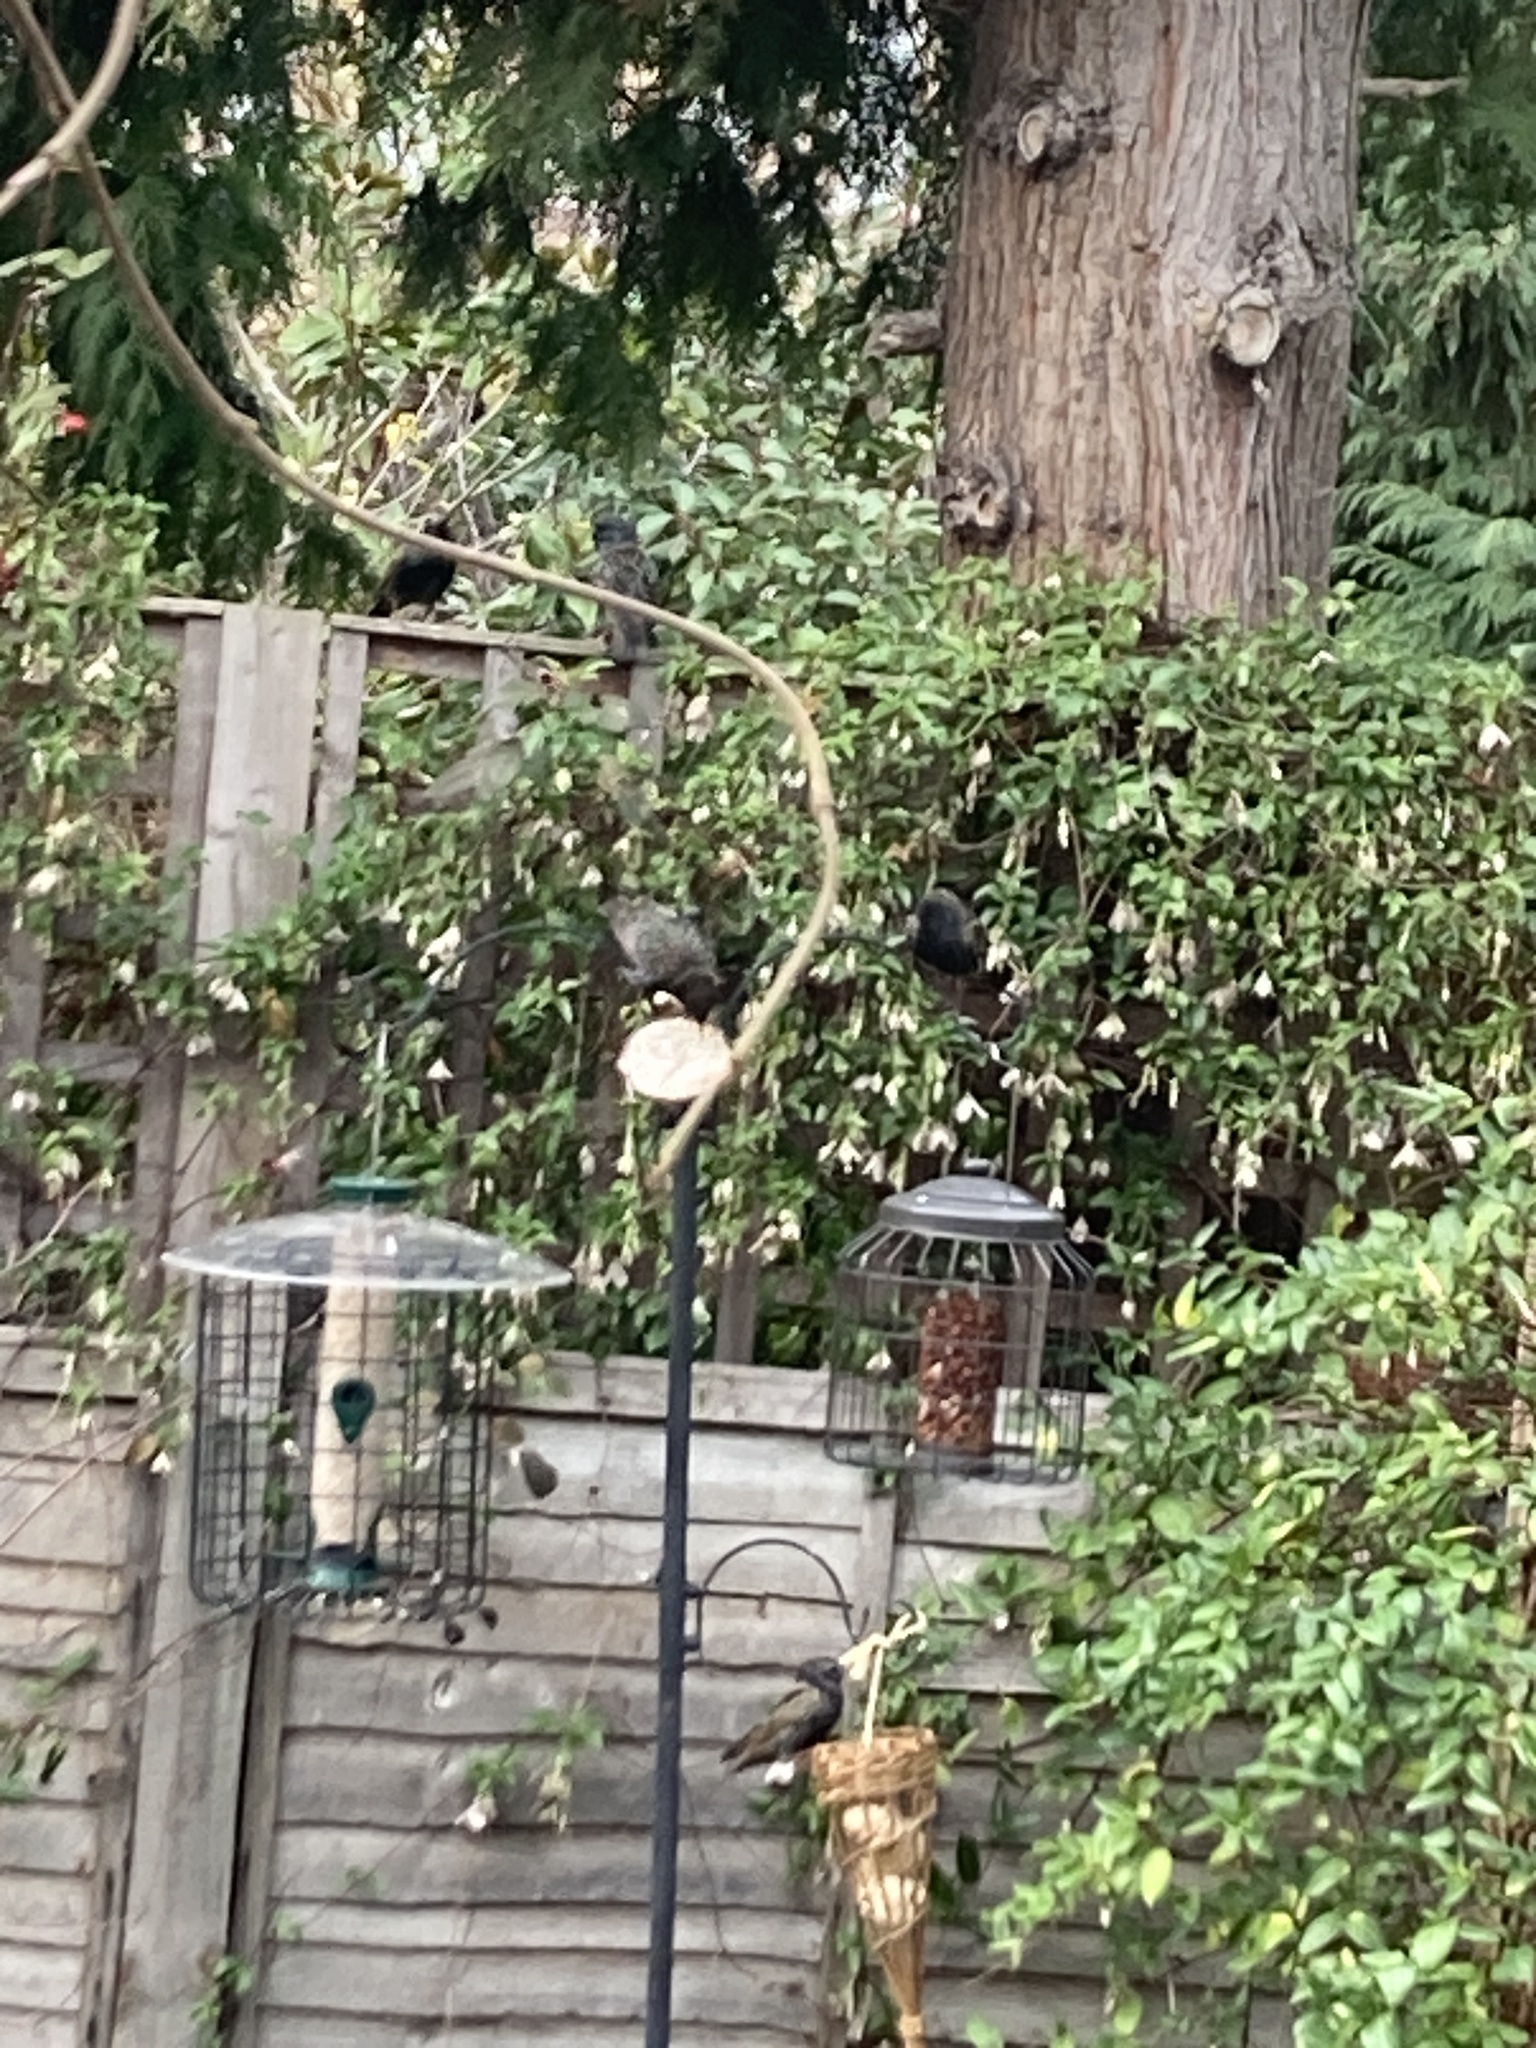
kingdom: Animalia
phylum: Chordata
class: Aves
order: Passeriformes
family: Sturnidae
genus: Sturnus
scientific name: Sturnus vulgaris
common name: Common starling
